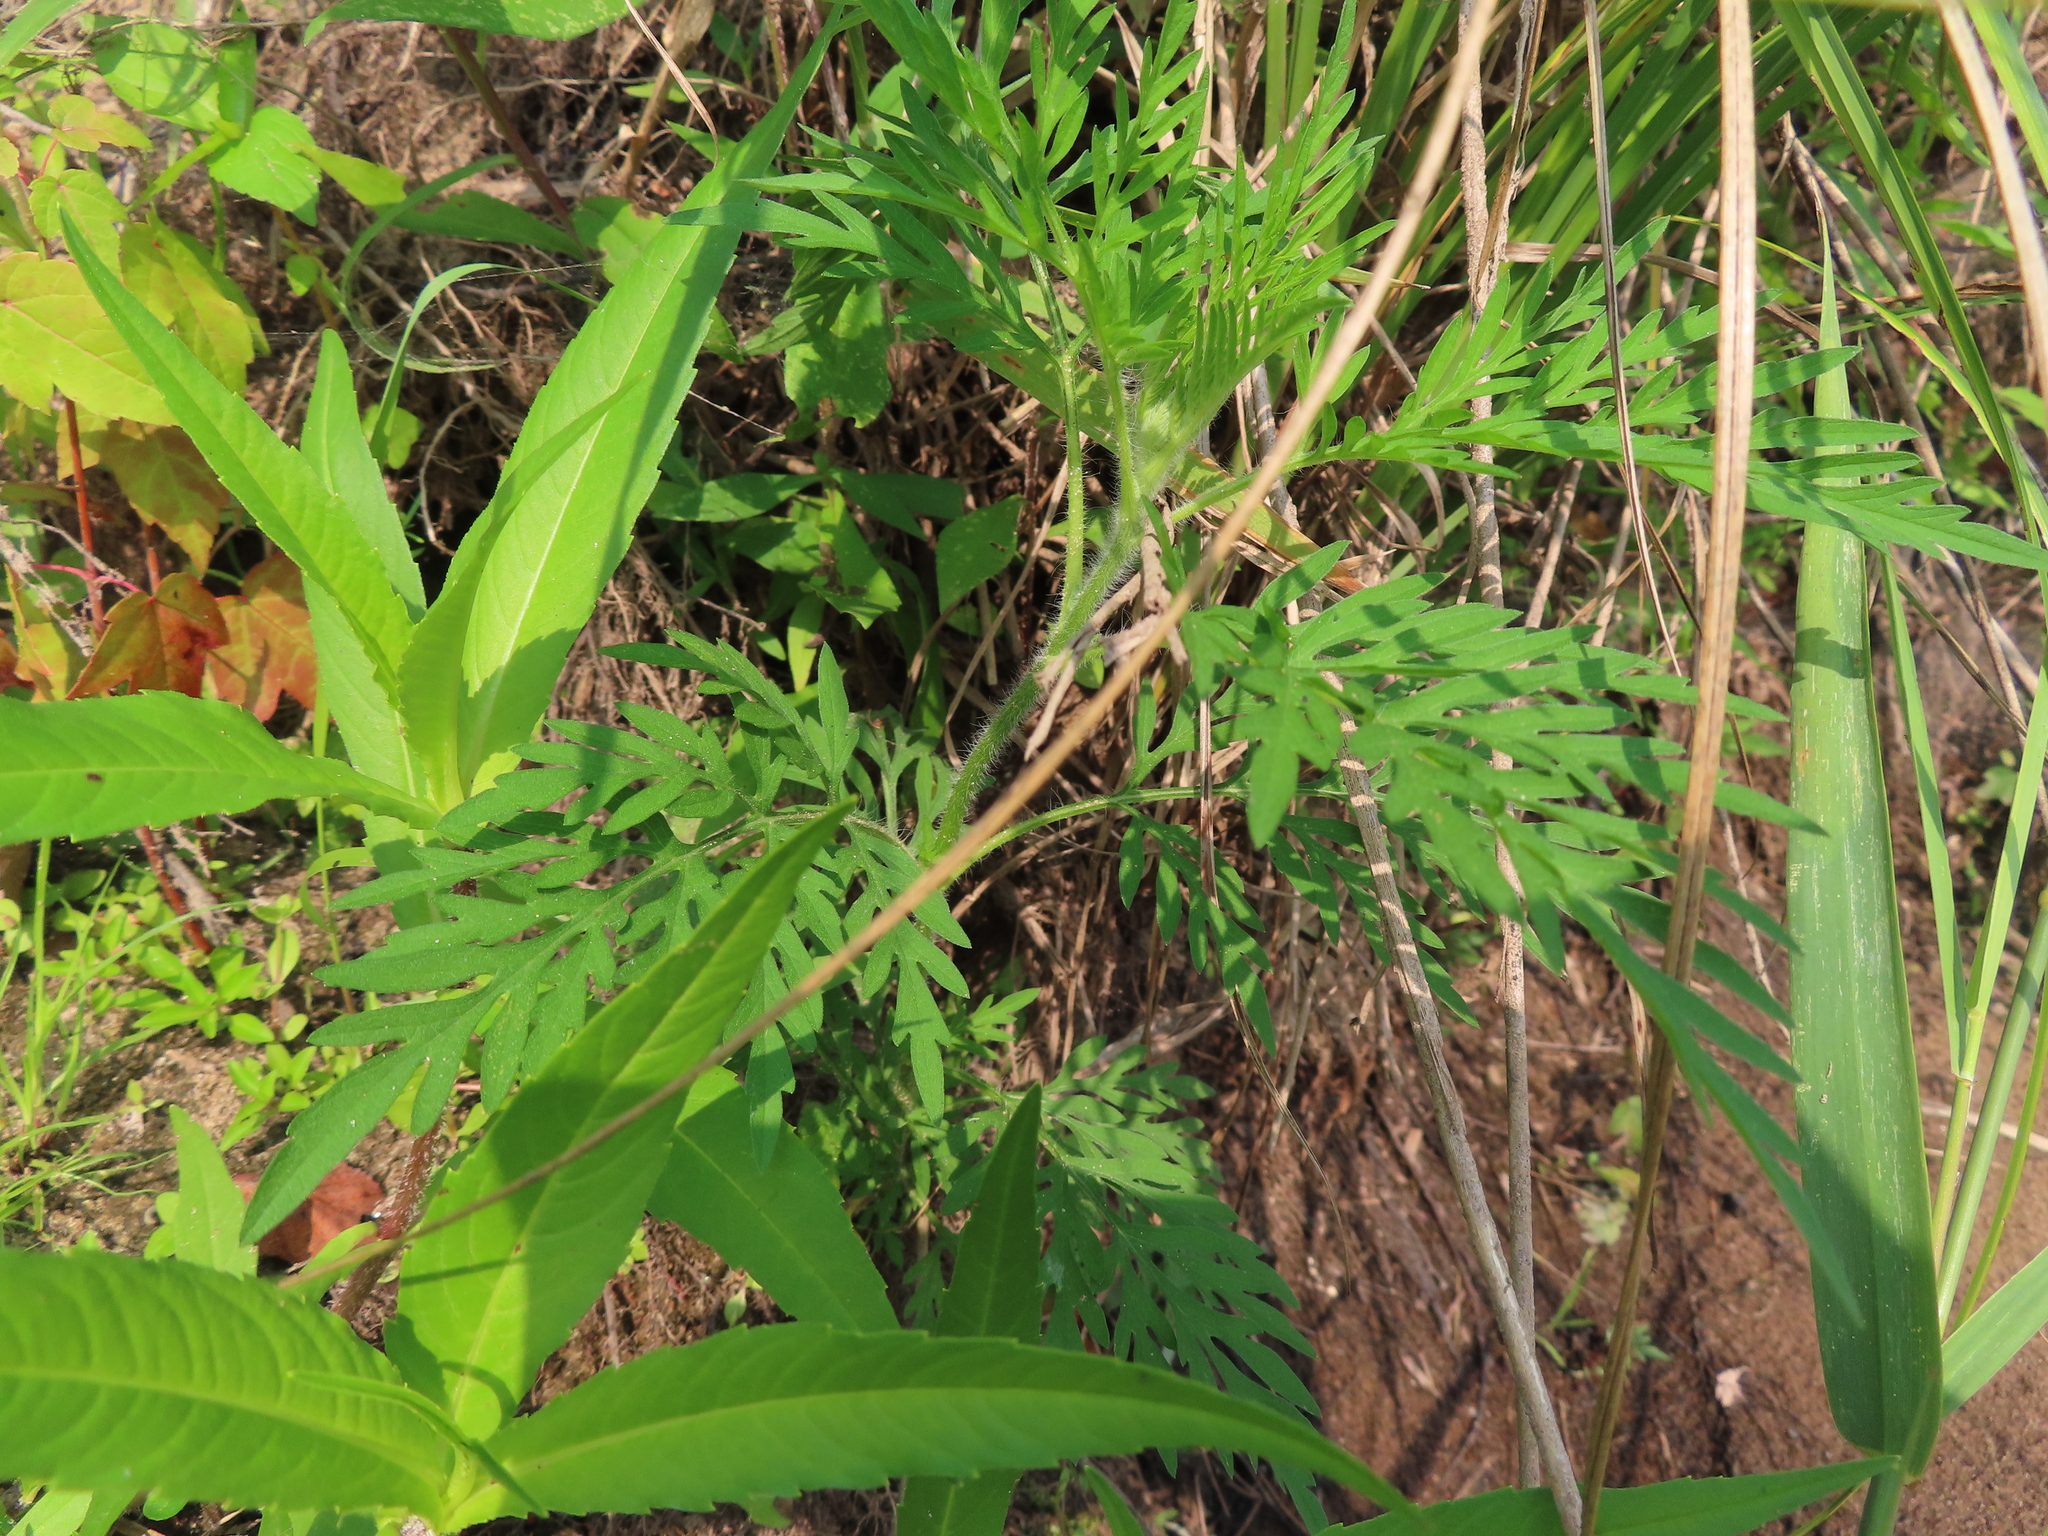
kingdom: Plantae
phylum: Tracheophyta
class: Magnoliopsida
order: Asterales
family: Asteraceae
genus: Ambrosia
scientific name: Ambrosia artemisiifolia
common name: Annual ragweed
